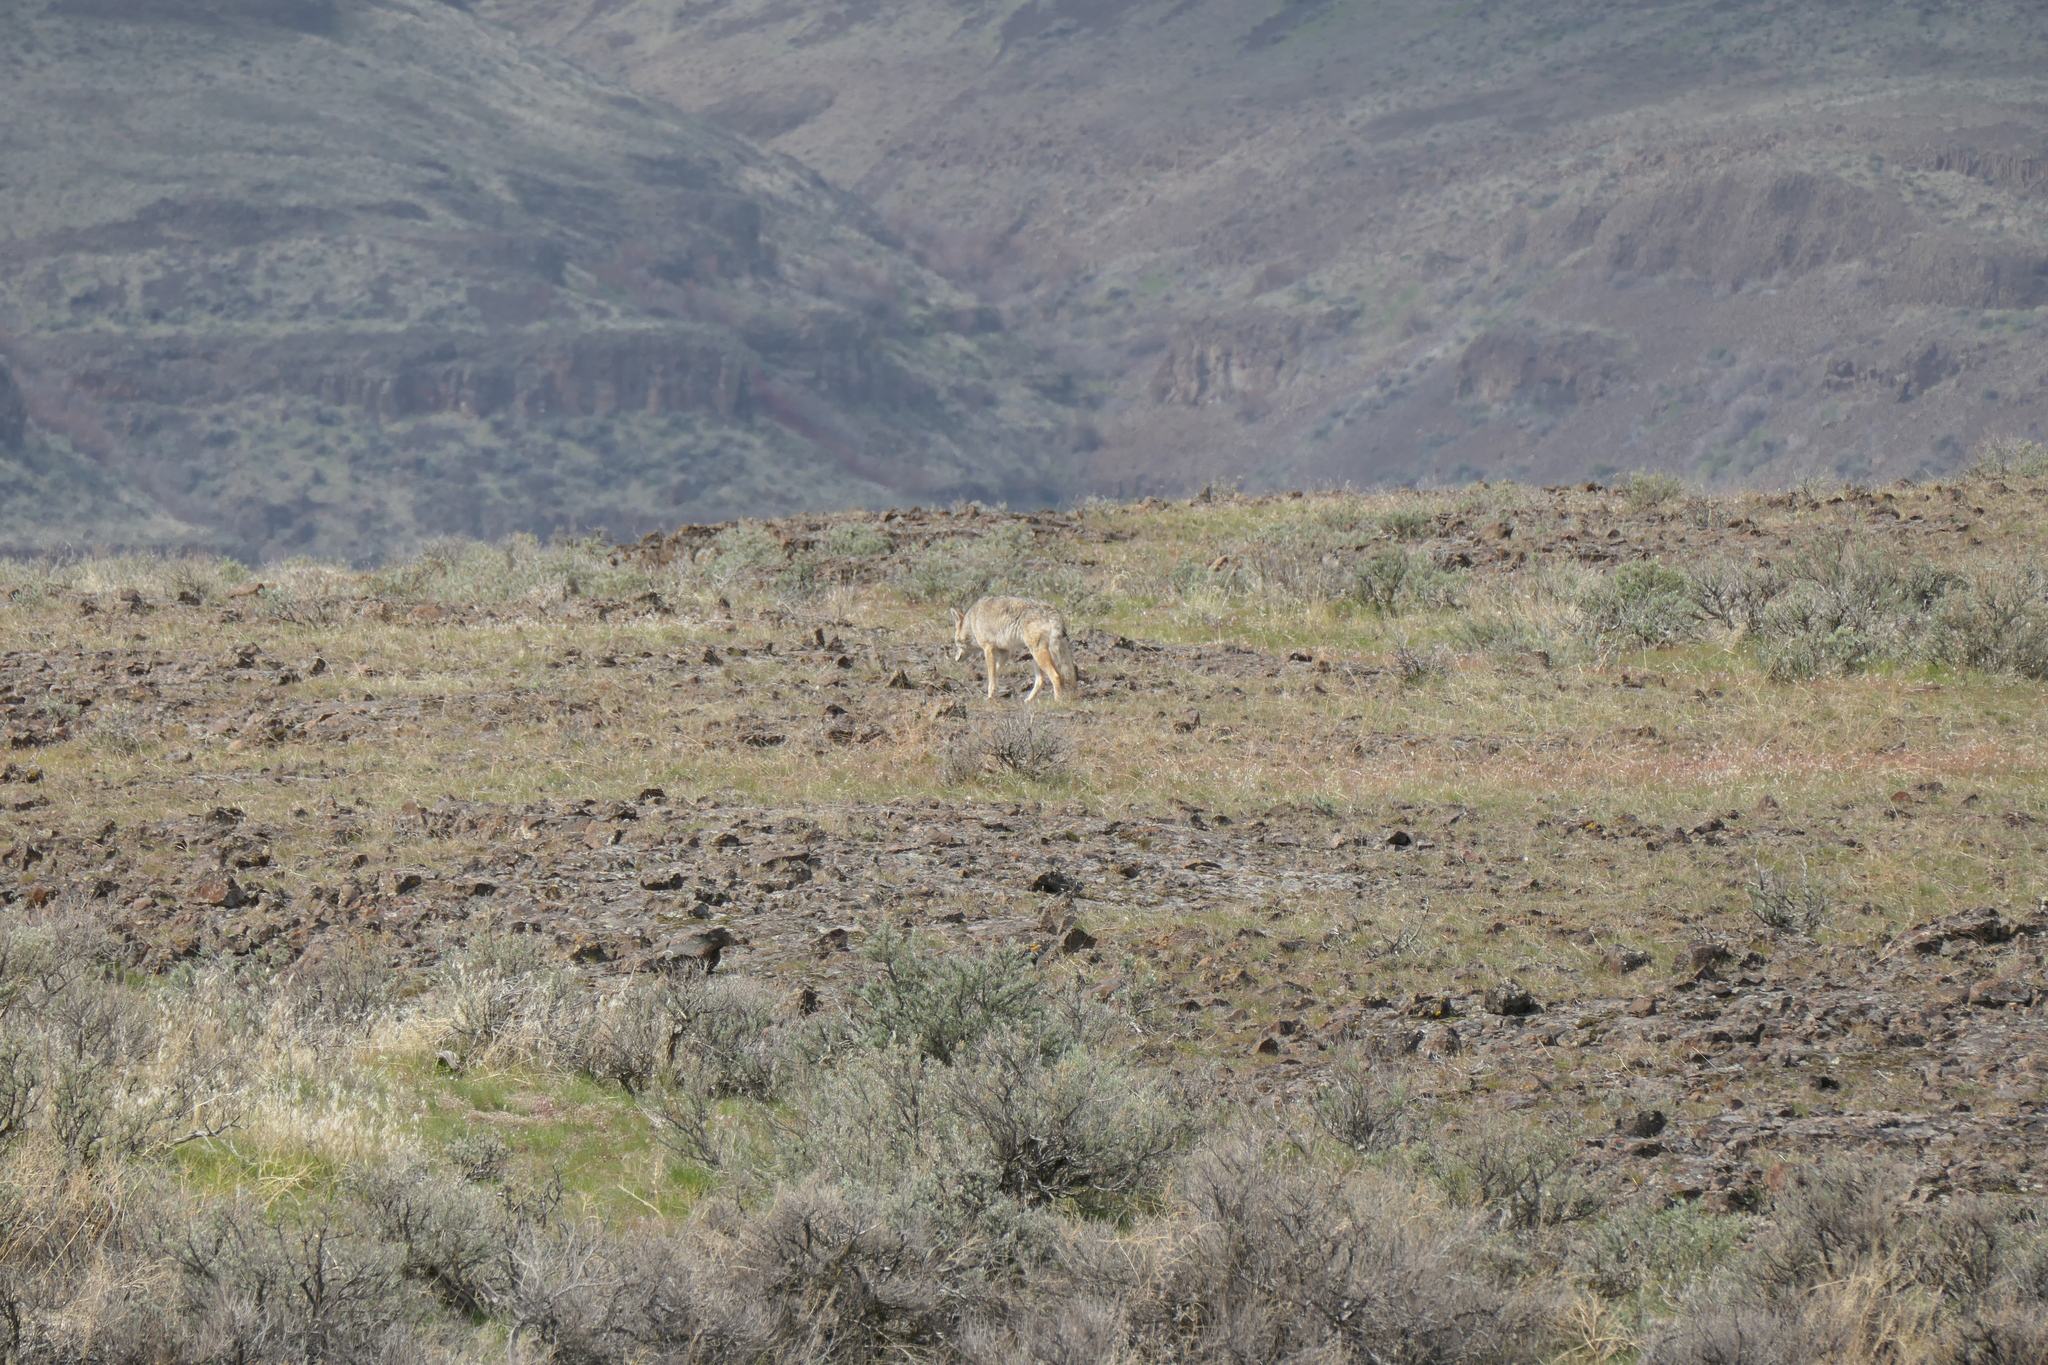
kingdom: Animalia
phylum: Chordata
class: Mammalia
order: Carnivora
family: Canidae
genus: Canis
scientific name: Canis latrans
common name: Coyote
